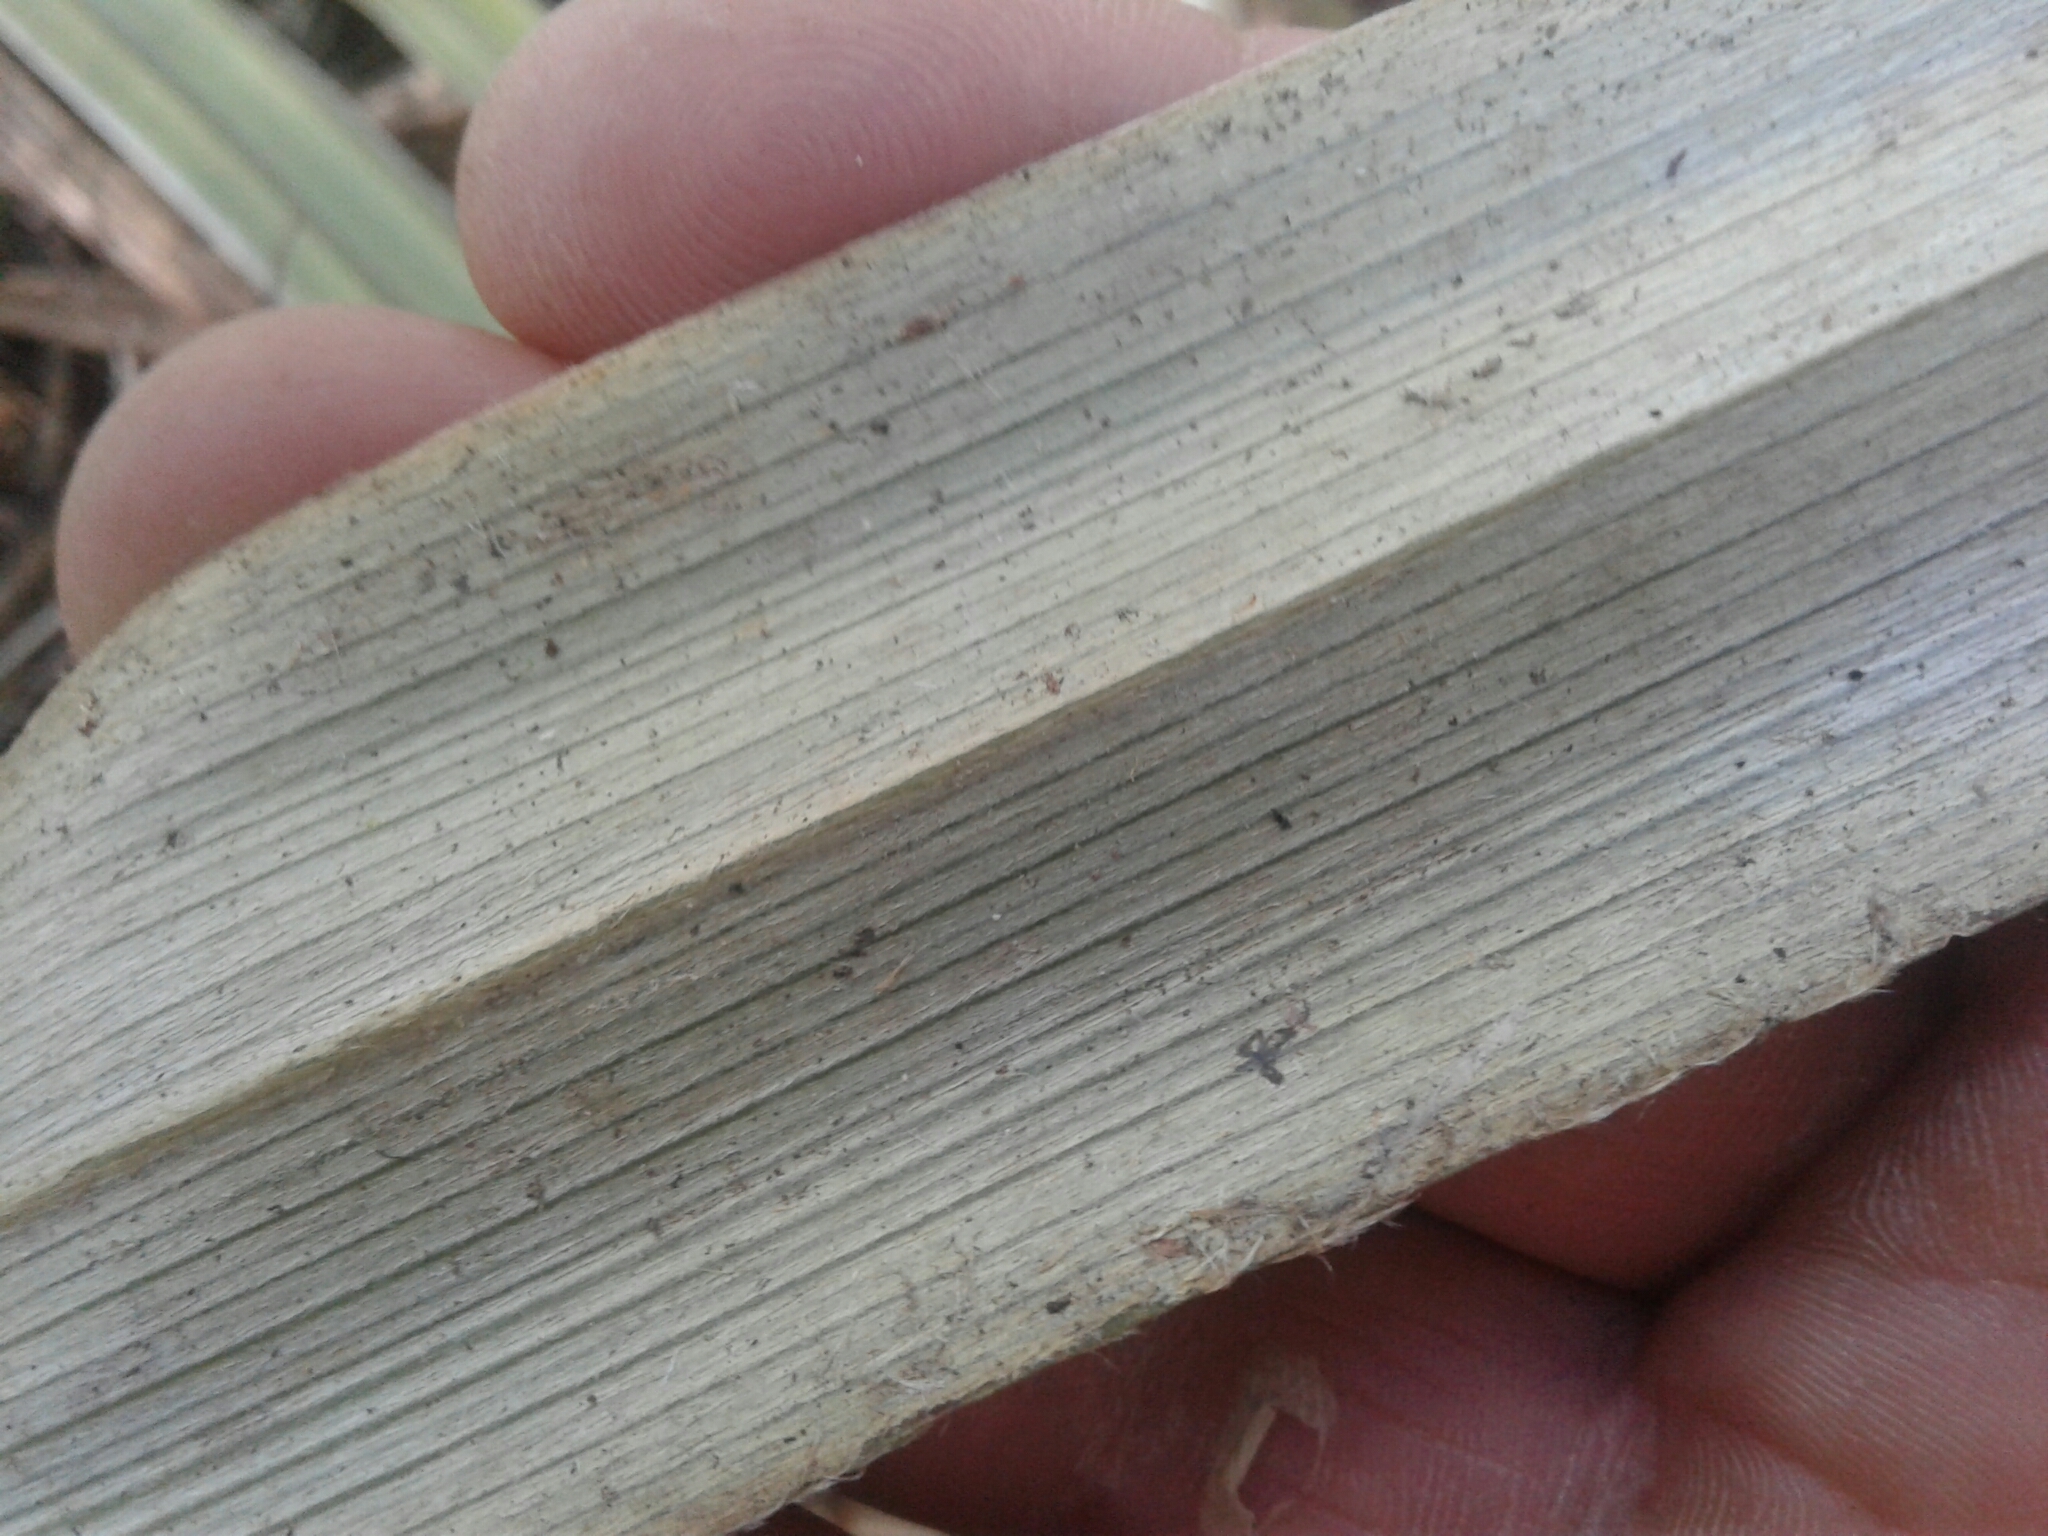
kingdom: Plantae
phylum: Tracheophyta
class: Liliopsida
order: Asparagales
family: Asteliaceae
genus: Astelia
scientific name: Astelia nervosa
